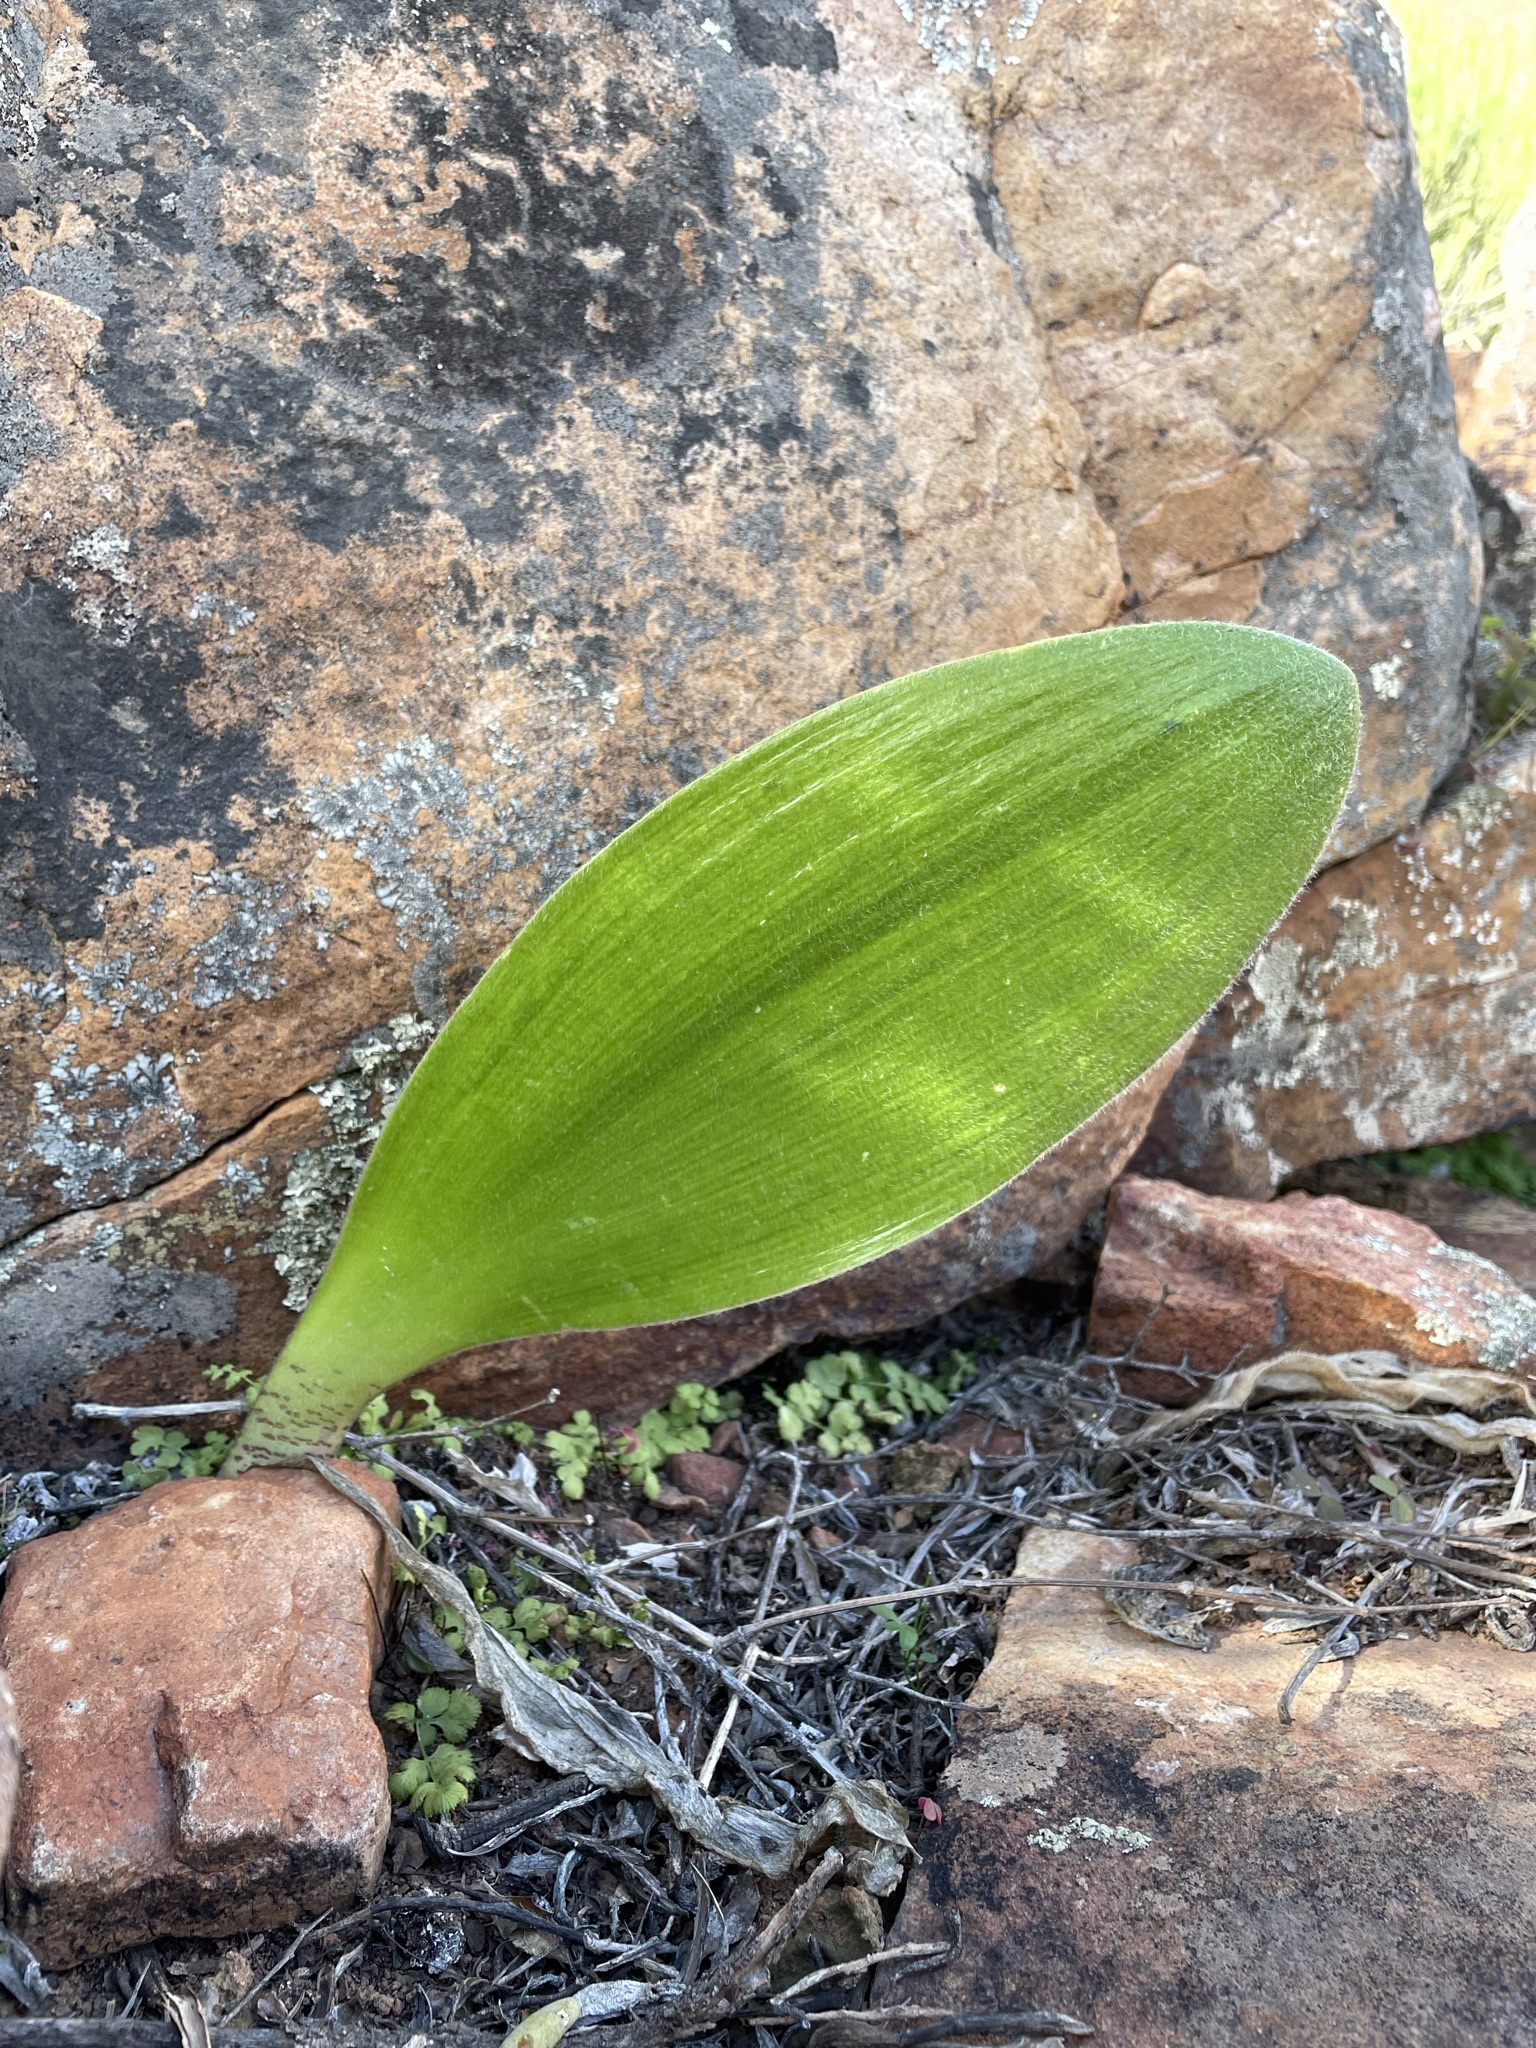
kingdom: Plantae
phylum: Tracheophyta
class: Liliopsida
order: Asparagales
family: Amaryllidaceae
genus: Haemanthus
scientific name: Haemanthus unifoliatus
